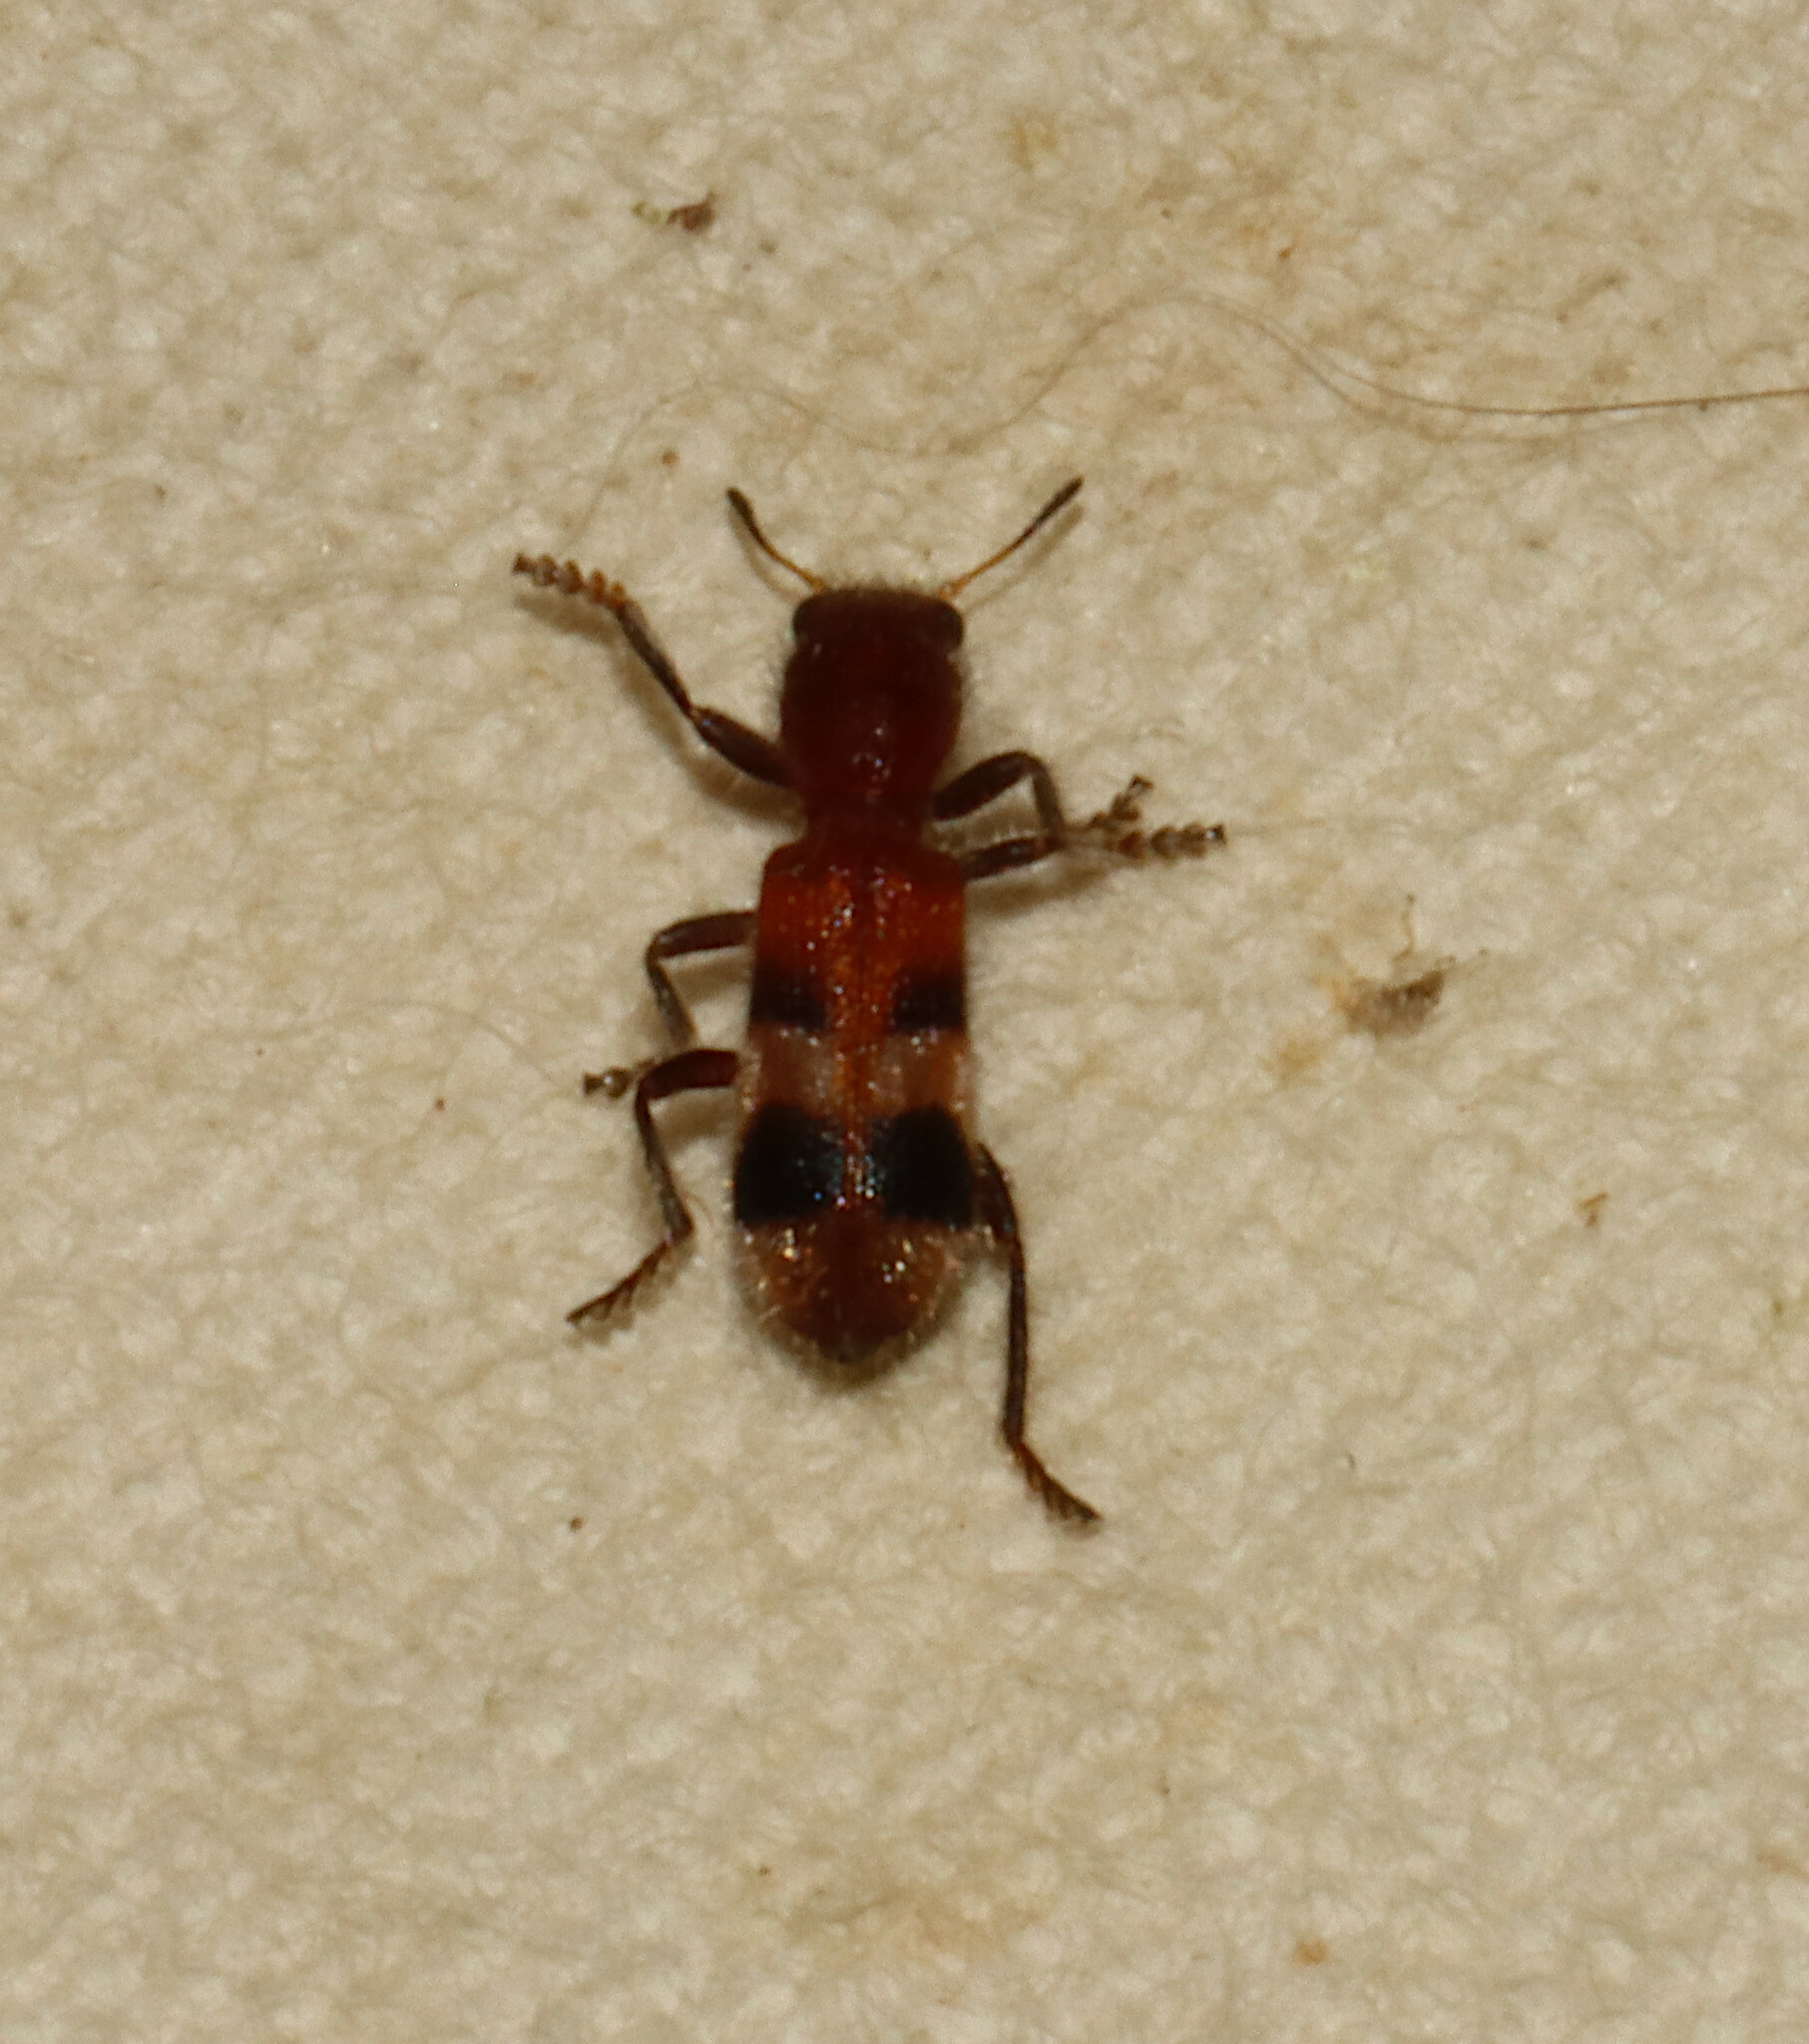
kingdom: Animalia
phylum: Arthropoda
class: Insecta
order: Coleoptera
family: Cleridae
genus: Enoclerus
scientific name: Enoclerus rosmarus
